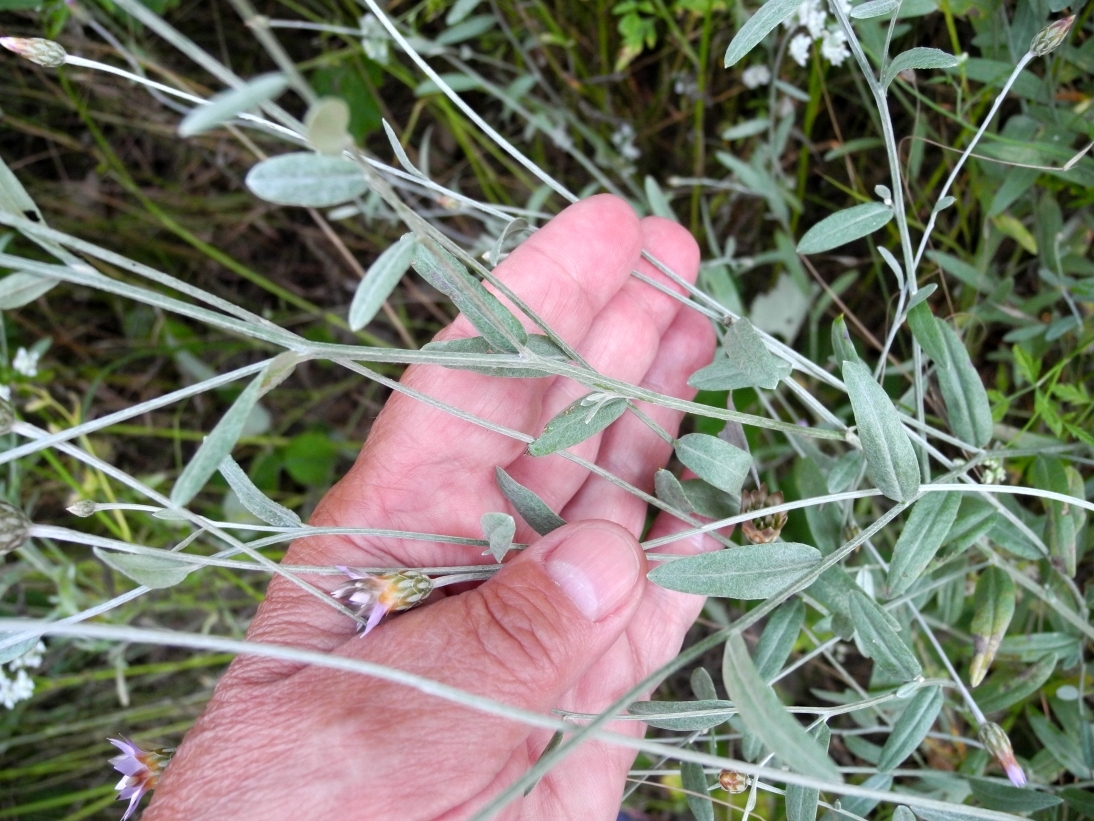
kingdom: Plantae
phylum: Tracheophyta
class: Magnoliopsida
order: Asterales
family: Asteraceae
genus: Xeranthemum
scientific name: Xeranthemum cylindraceum
